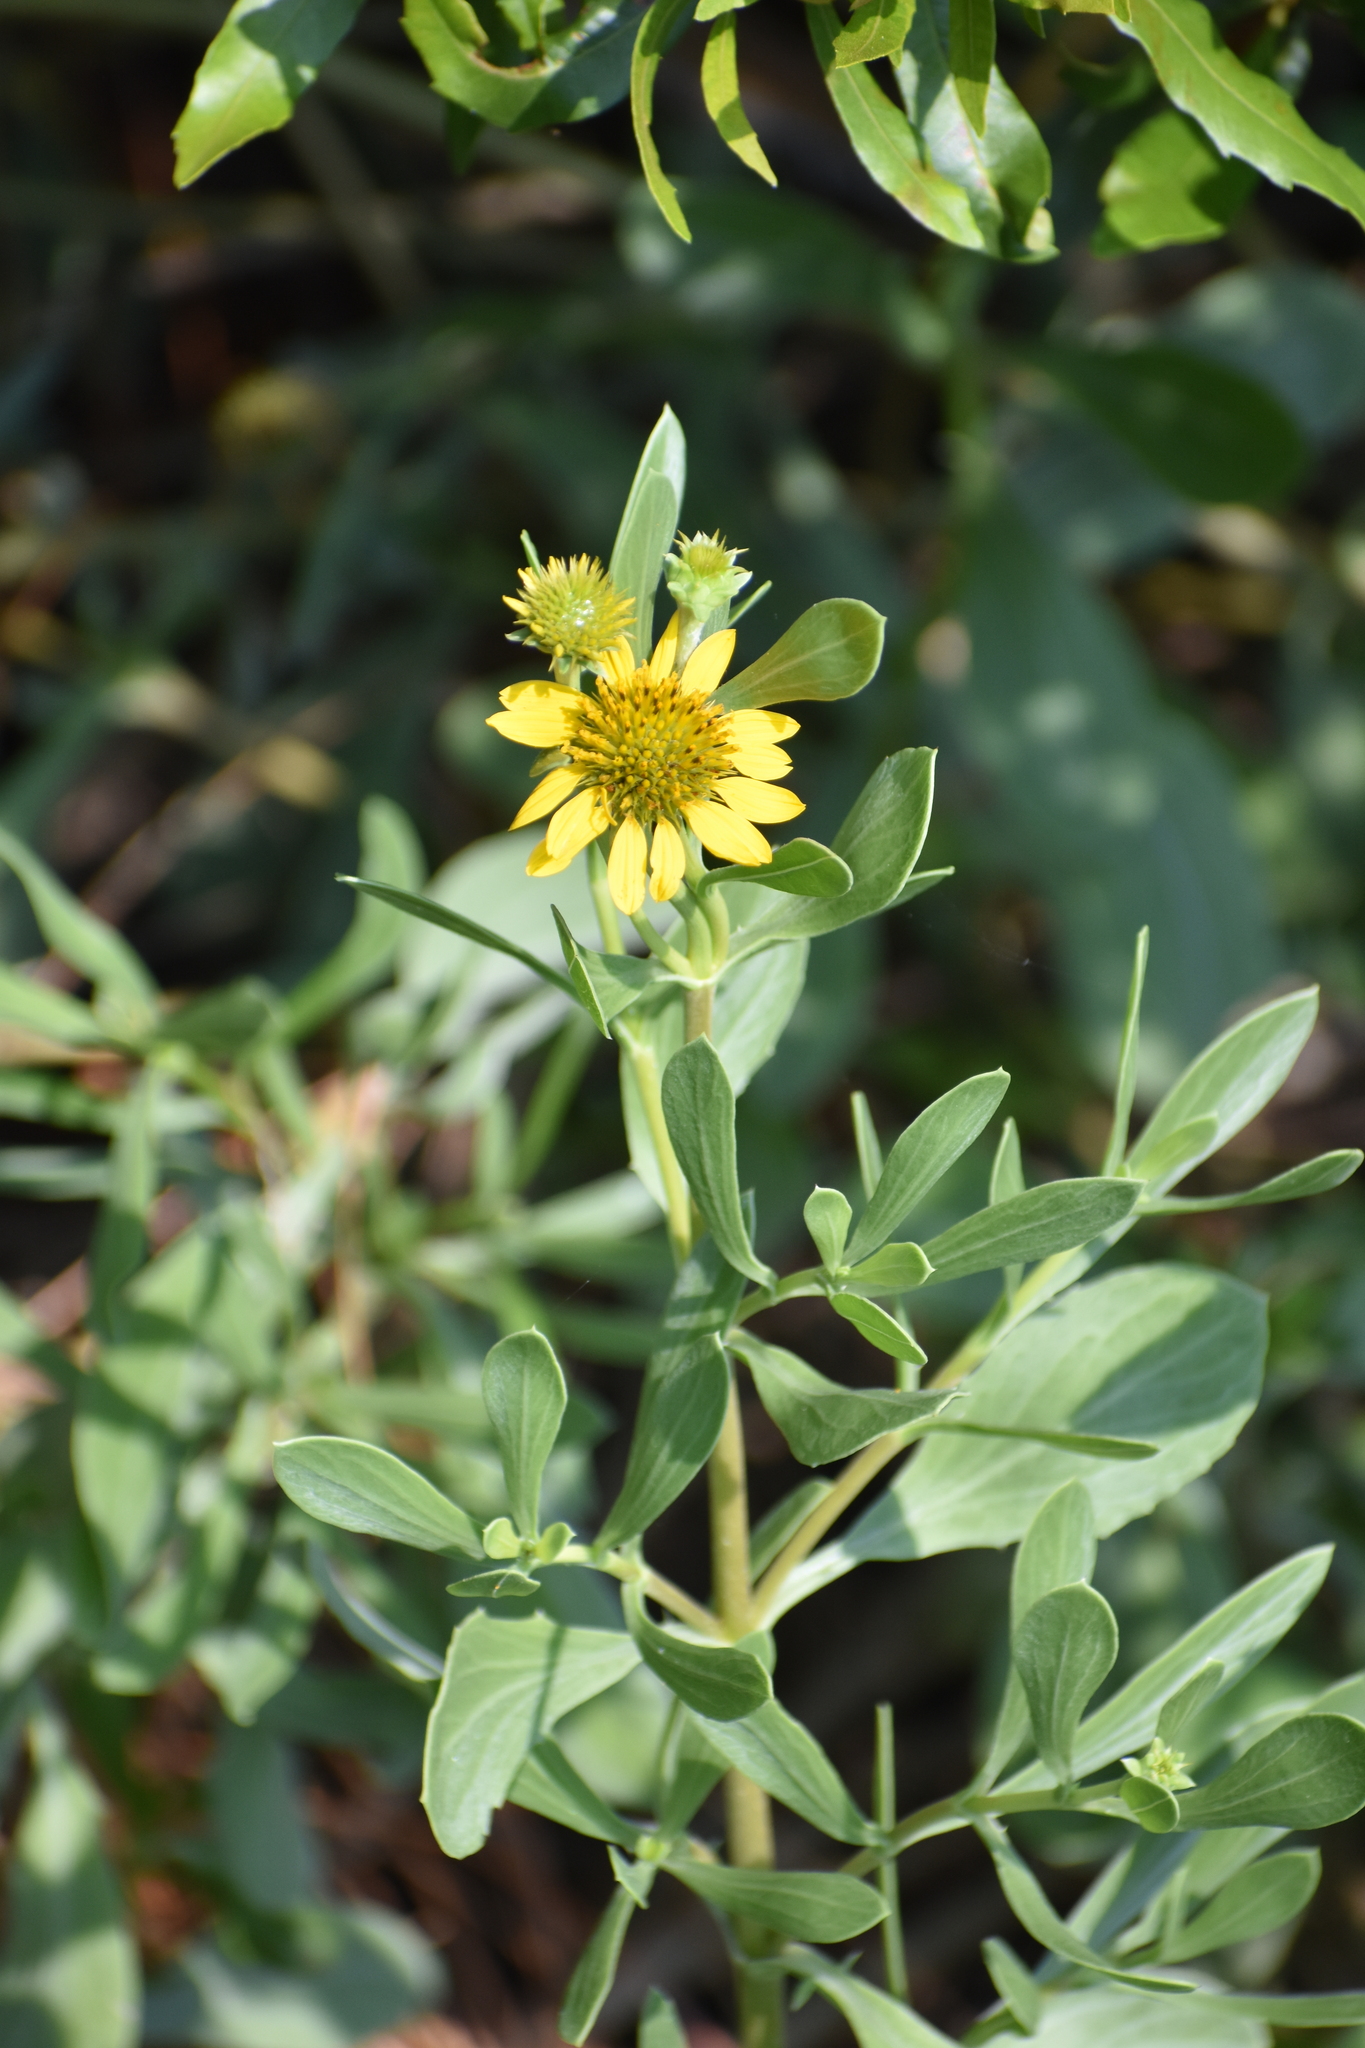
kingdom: Plantae
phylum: Tracheophyta
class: Magnoliopsida
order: Asterales
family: Asteraceae
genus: Borrichia
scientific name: Borrichia frutescens
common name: Sea oxeye
